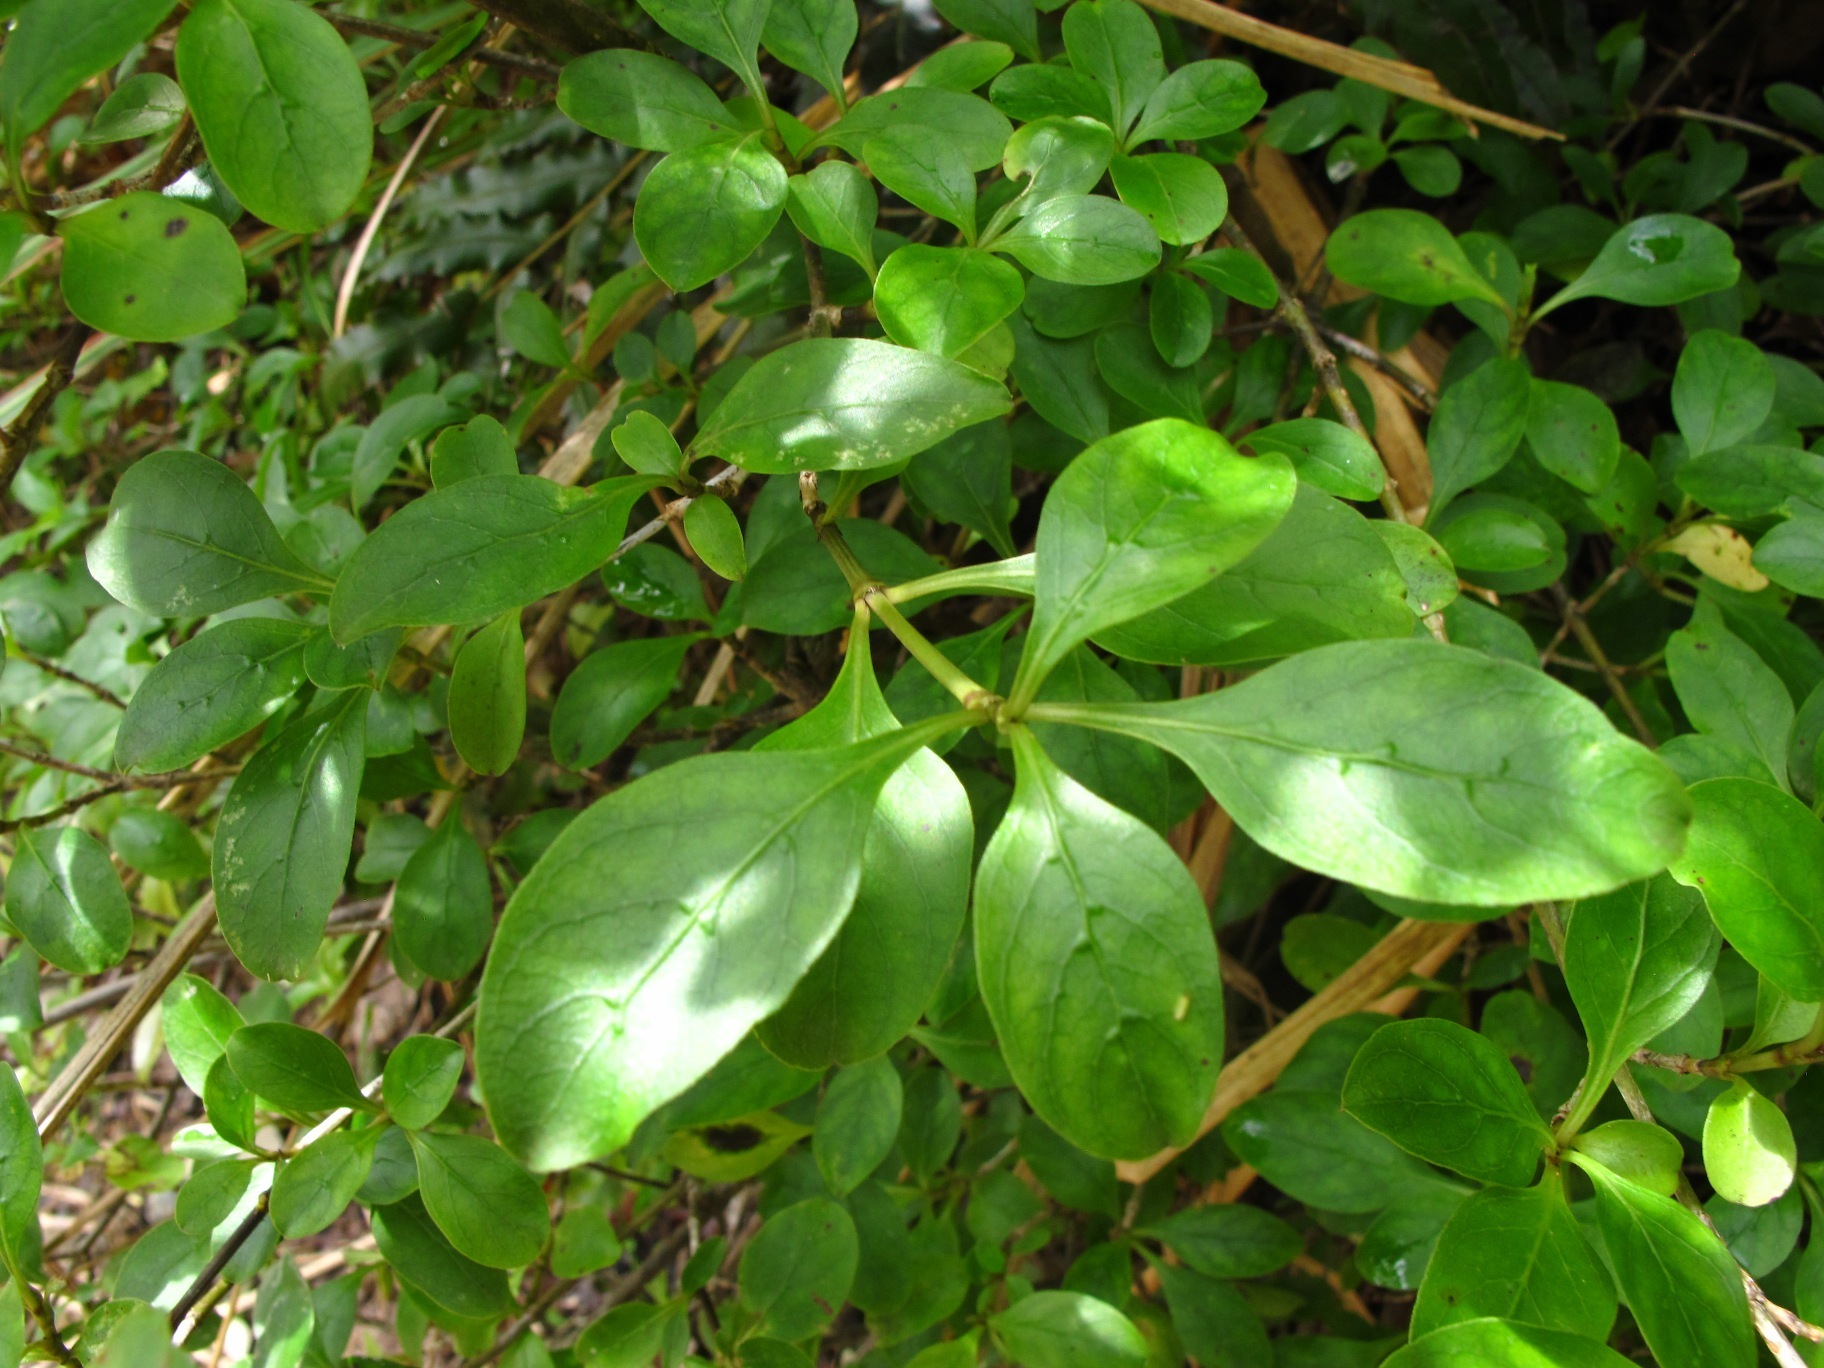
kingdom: Plantae
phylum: Tracheophyta
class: Magnoliopsida
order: Gentianales
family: Rubiaceae
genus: Coprosma
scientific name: Coprosma foetidissima
